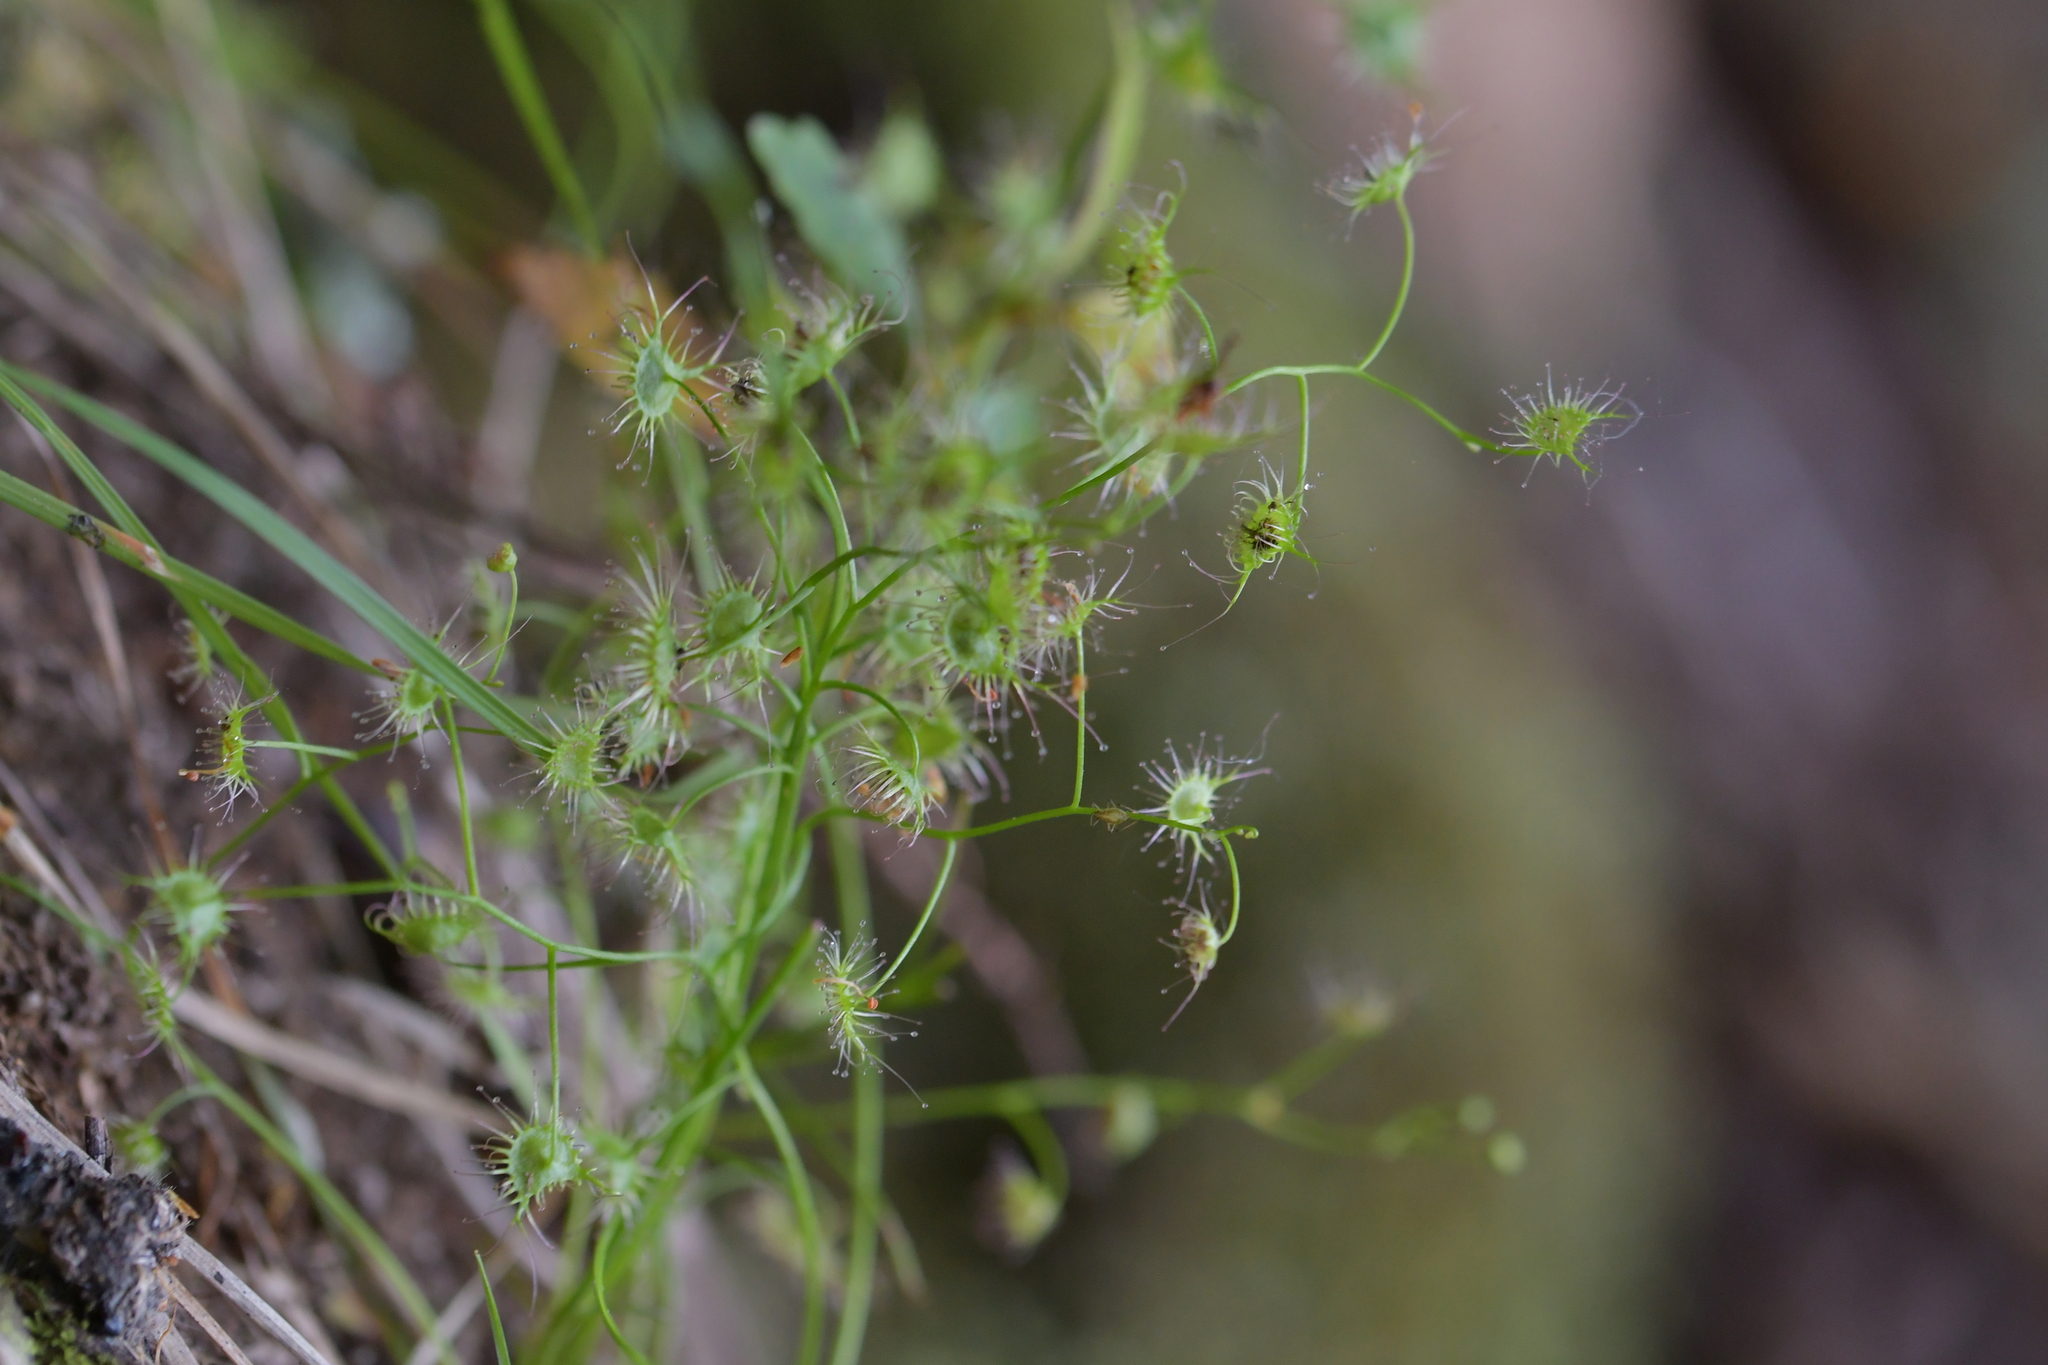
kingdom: Plantae
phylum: Tracheophyta
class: Magnoliopsida
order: Caryophyllales
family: Droseraceae
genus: Drosera
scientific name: Drosera peltata
